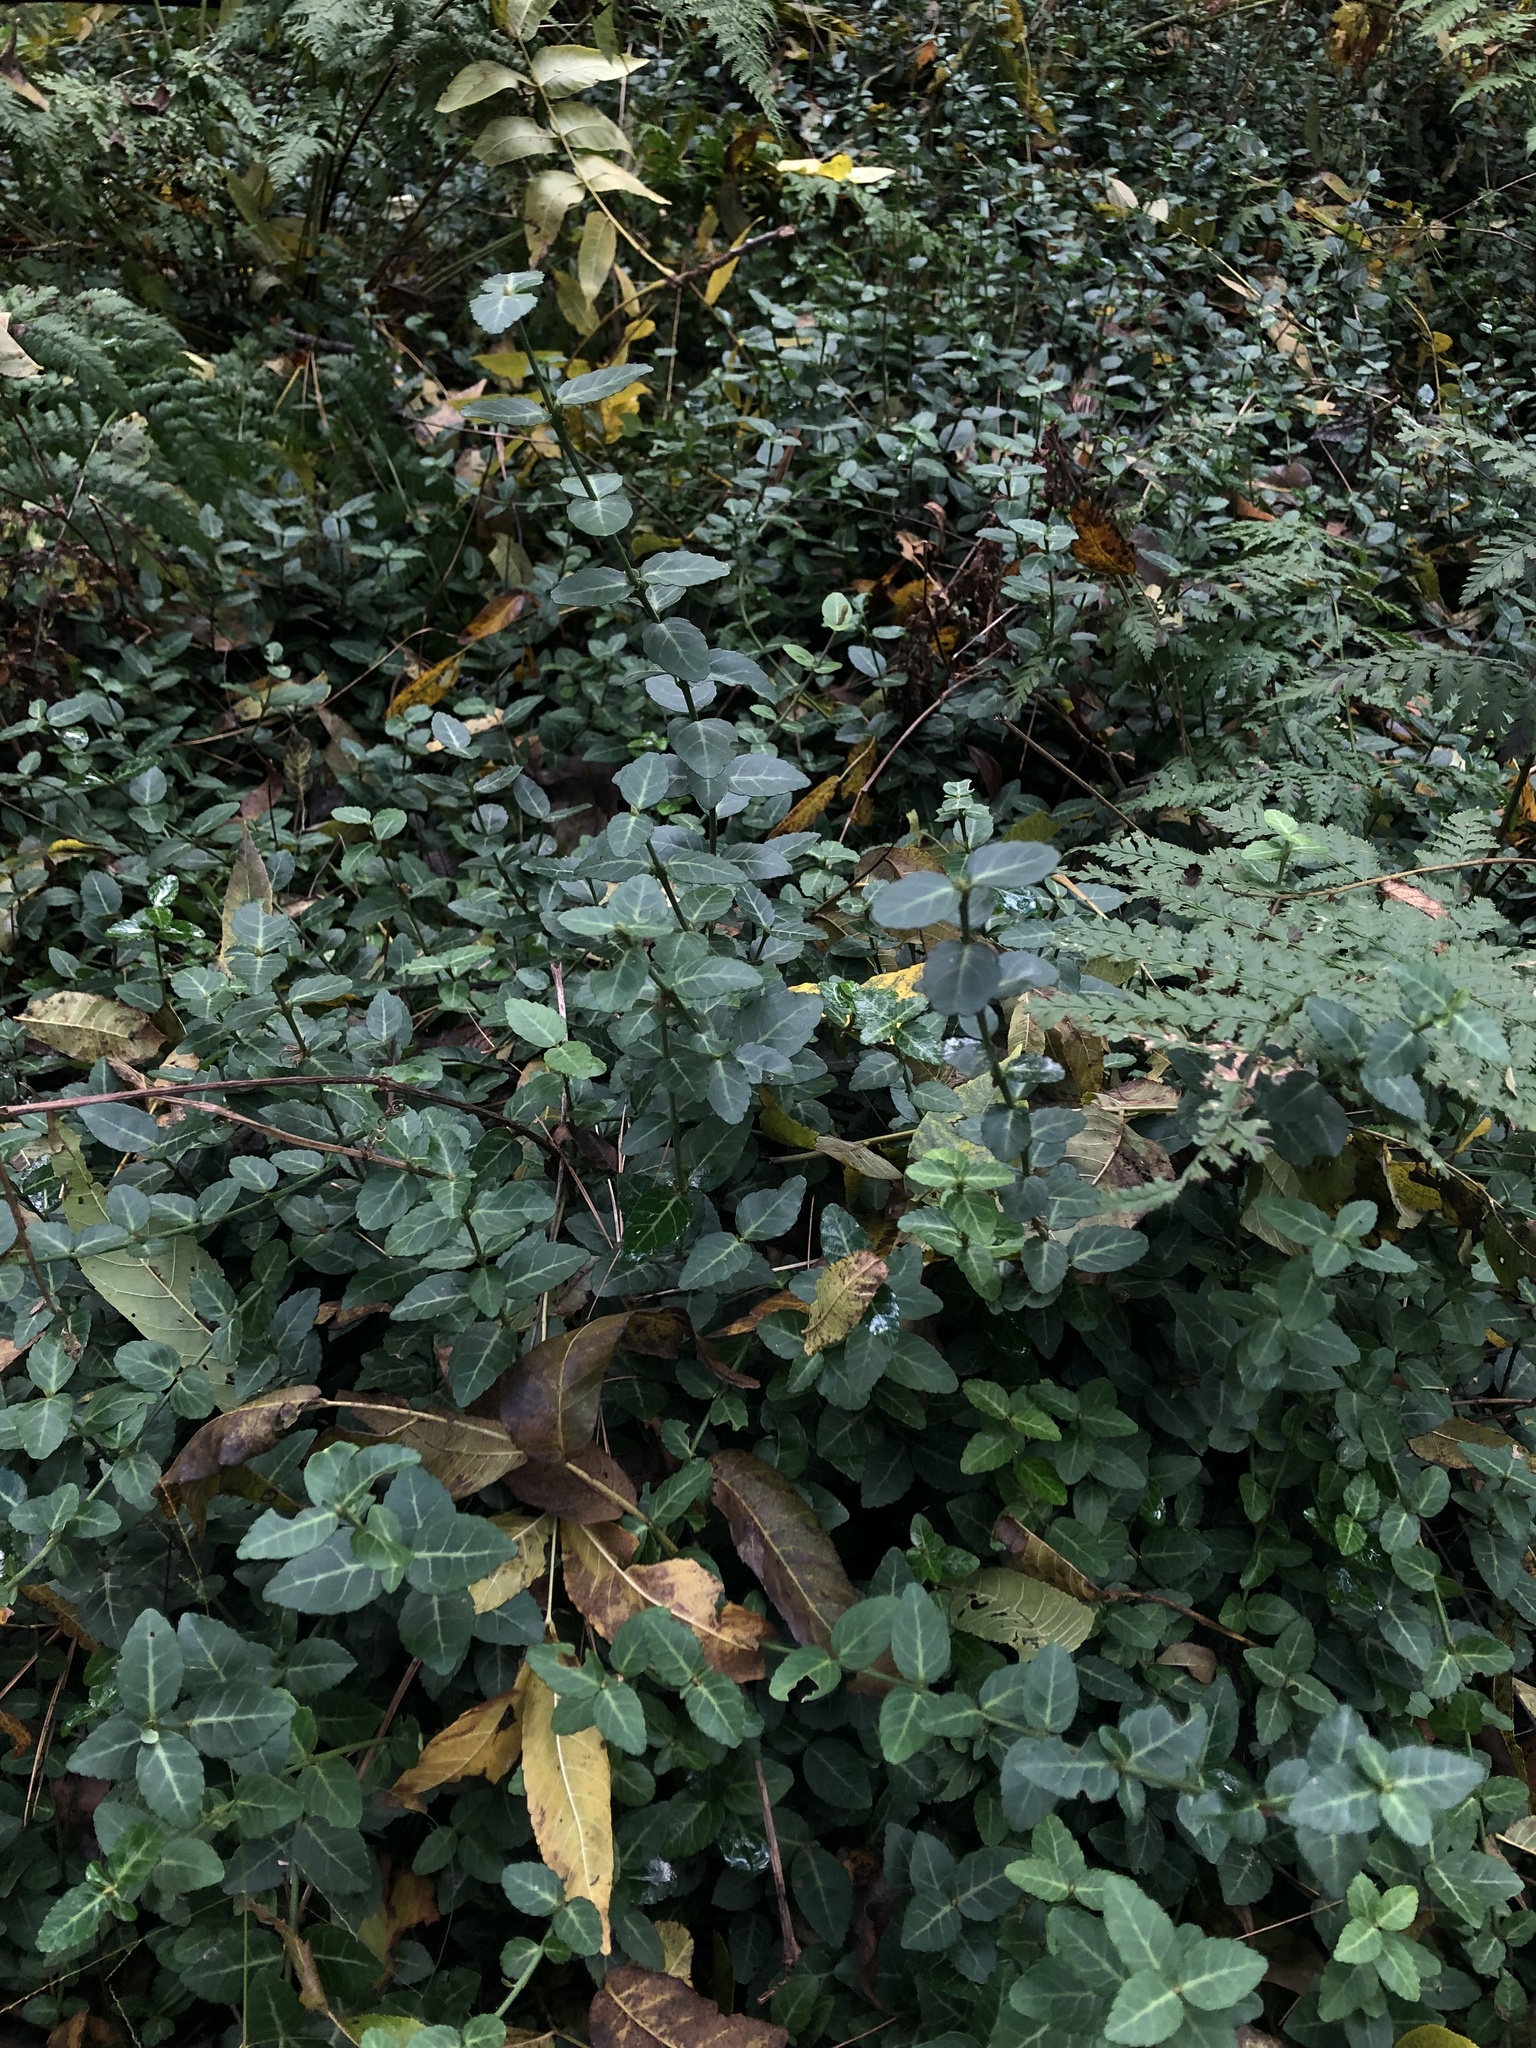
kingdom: Plantae
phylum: Tracheophyta
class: Magnoliopsida
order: Celastrales
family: Celastraceae
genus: Euonymus
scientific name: Euonymus fortunei
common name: Climbing euonymus
